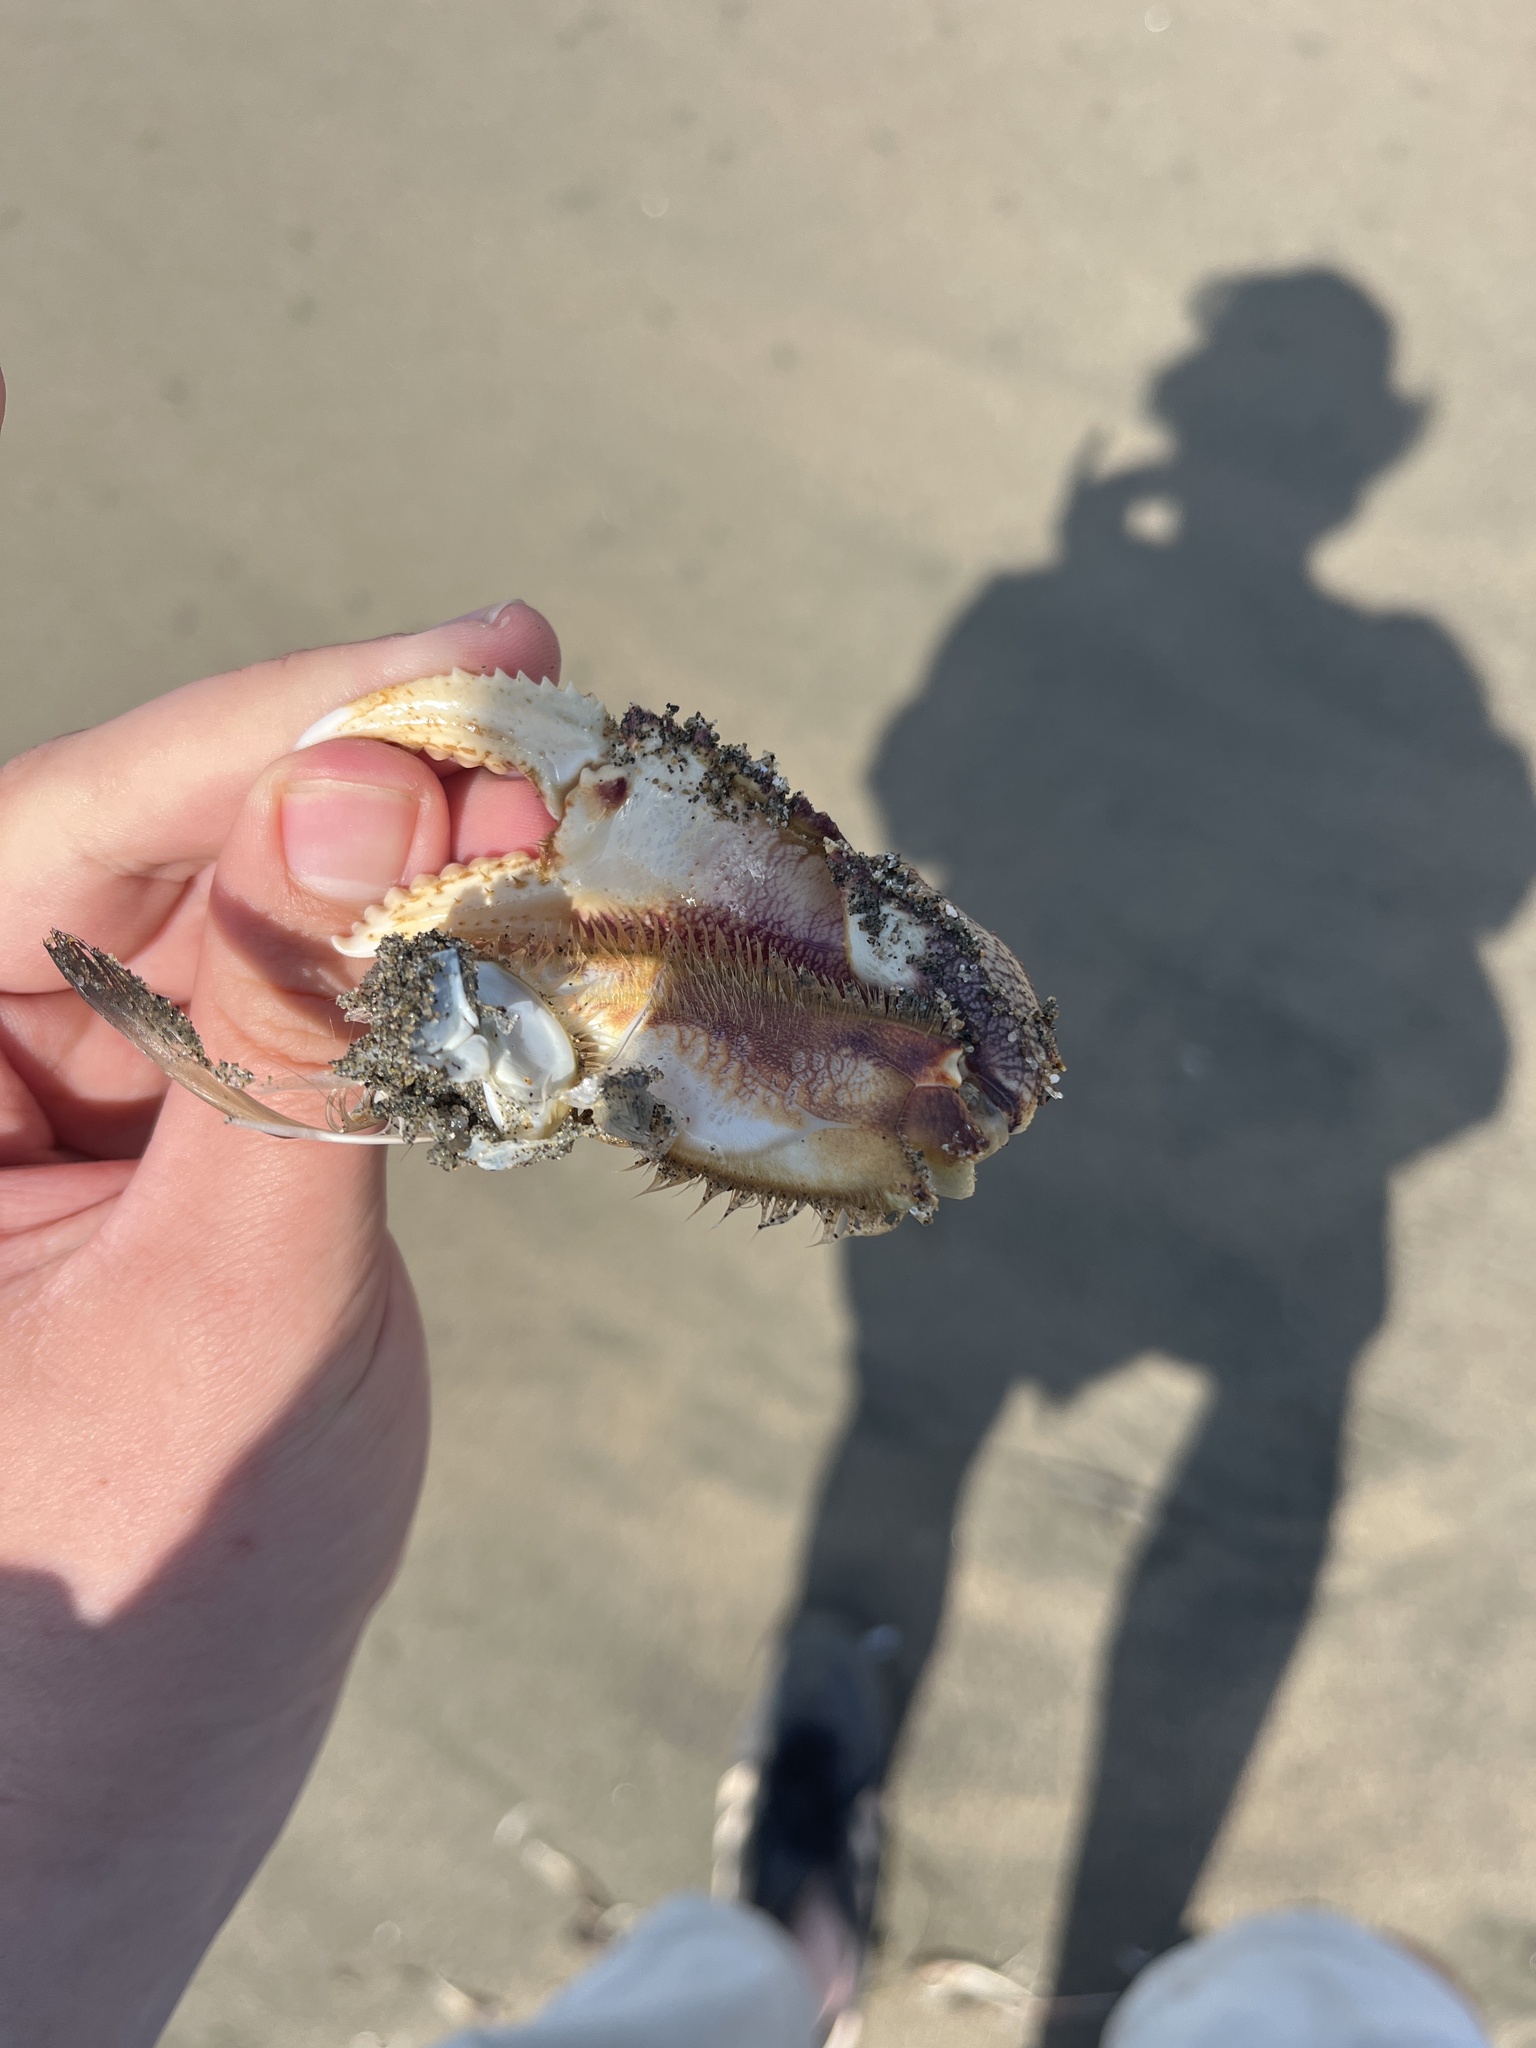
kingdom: Animalia
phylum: Arthropoda
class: Malacostraca
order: Decapoda
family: Cancridae
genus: Metacarcinus
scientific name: Metacarcinus magister
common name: Californian crab
